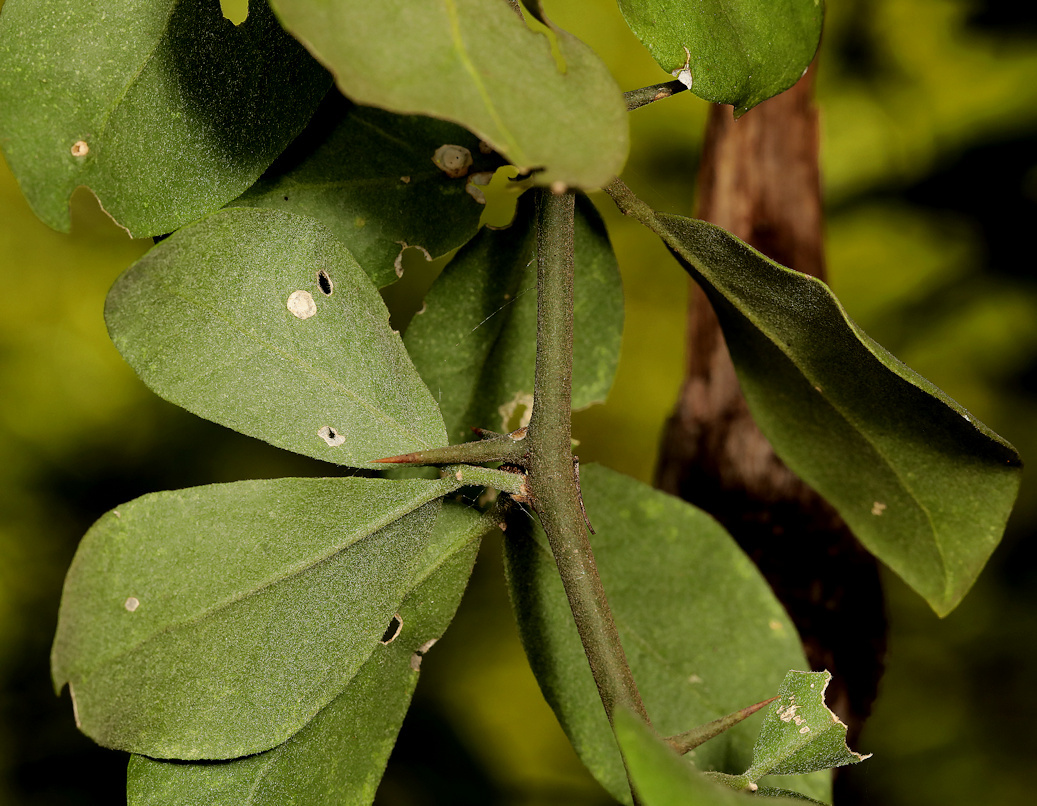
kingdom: Plantae
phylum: Tracheophyta
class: Magnoliopsida
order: Zygophyllales
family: Zygophyllaceae
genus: Balanites
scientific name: Balanites maughamii
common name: Torchwood
